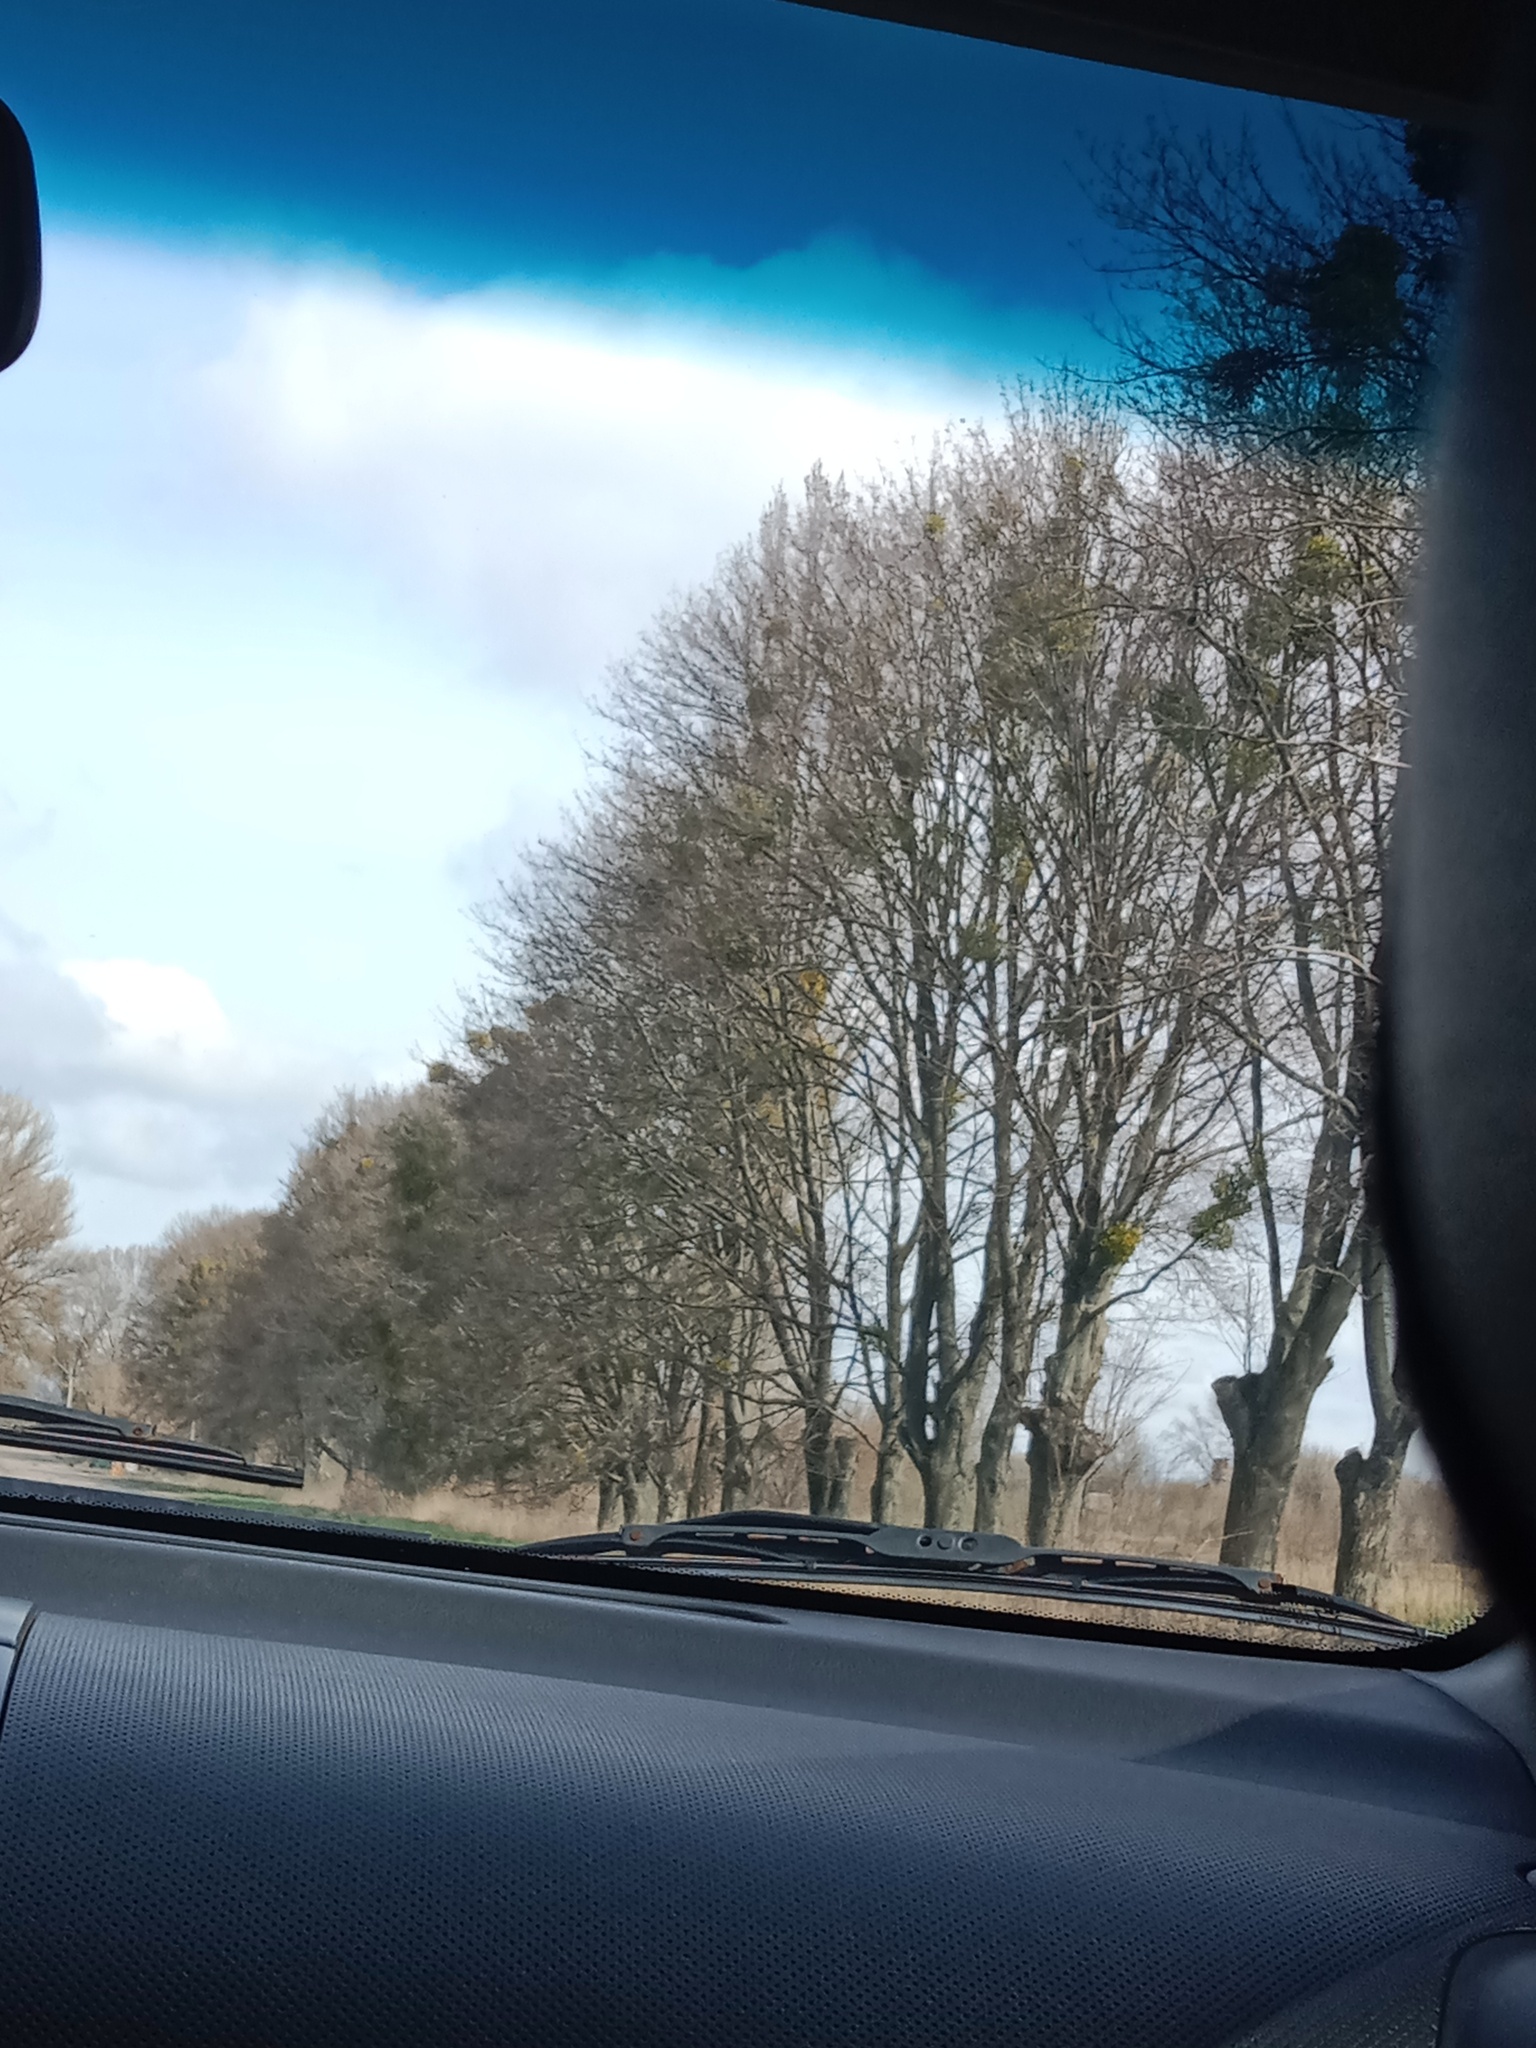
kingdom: Plantae
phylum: Tracheophyta
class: Magnoliopsida
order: Santalales
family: Viscaceae
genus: Viscum
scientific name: Viscum album
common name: Mistletoe
